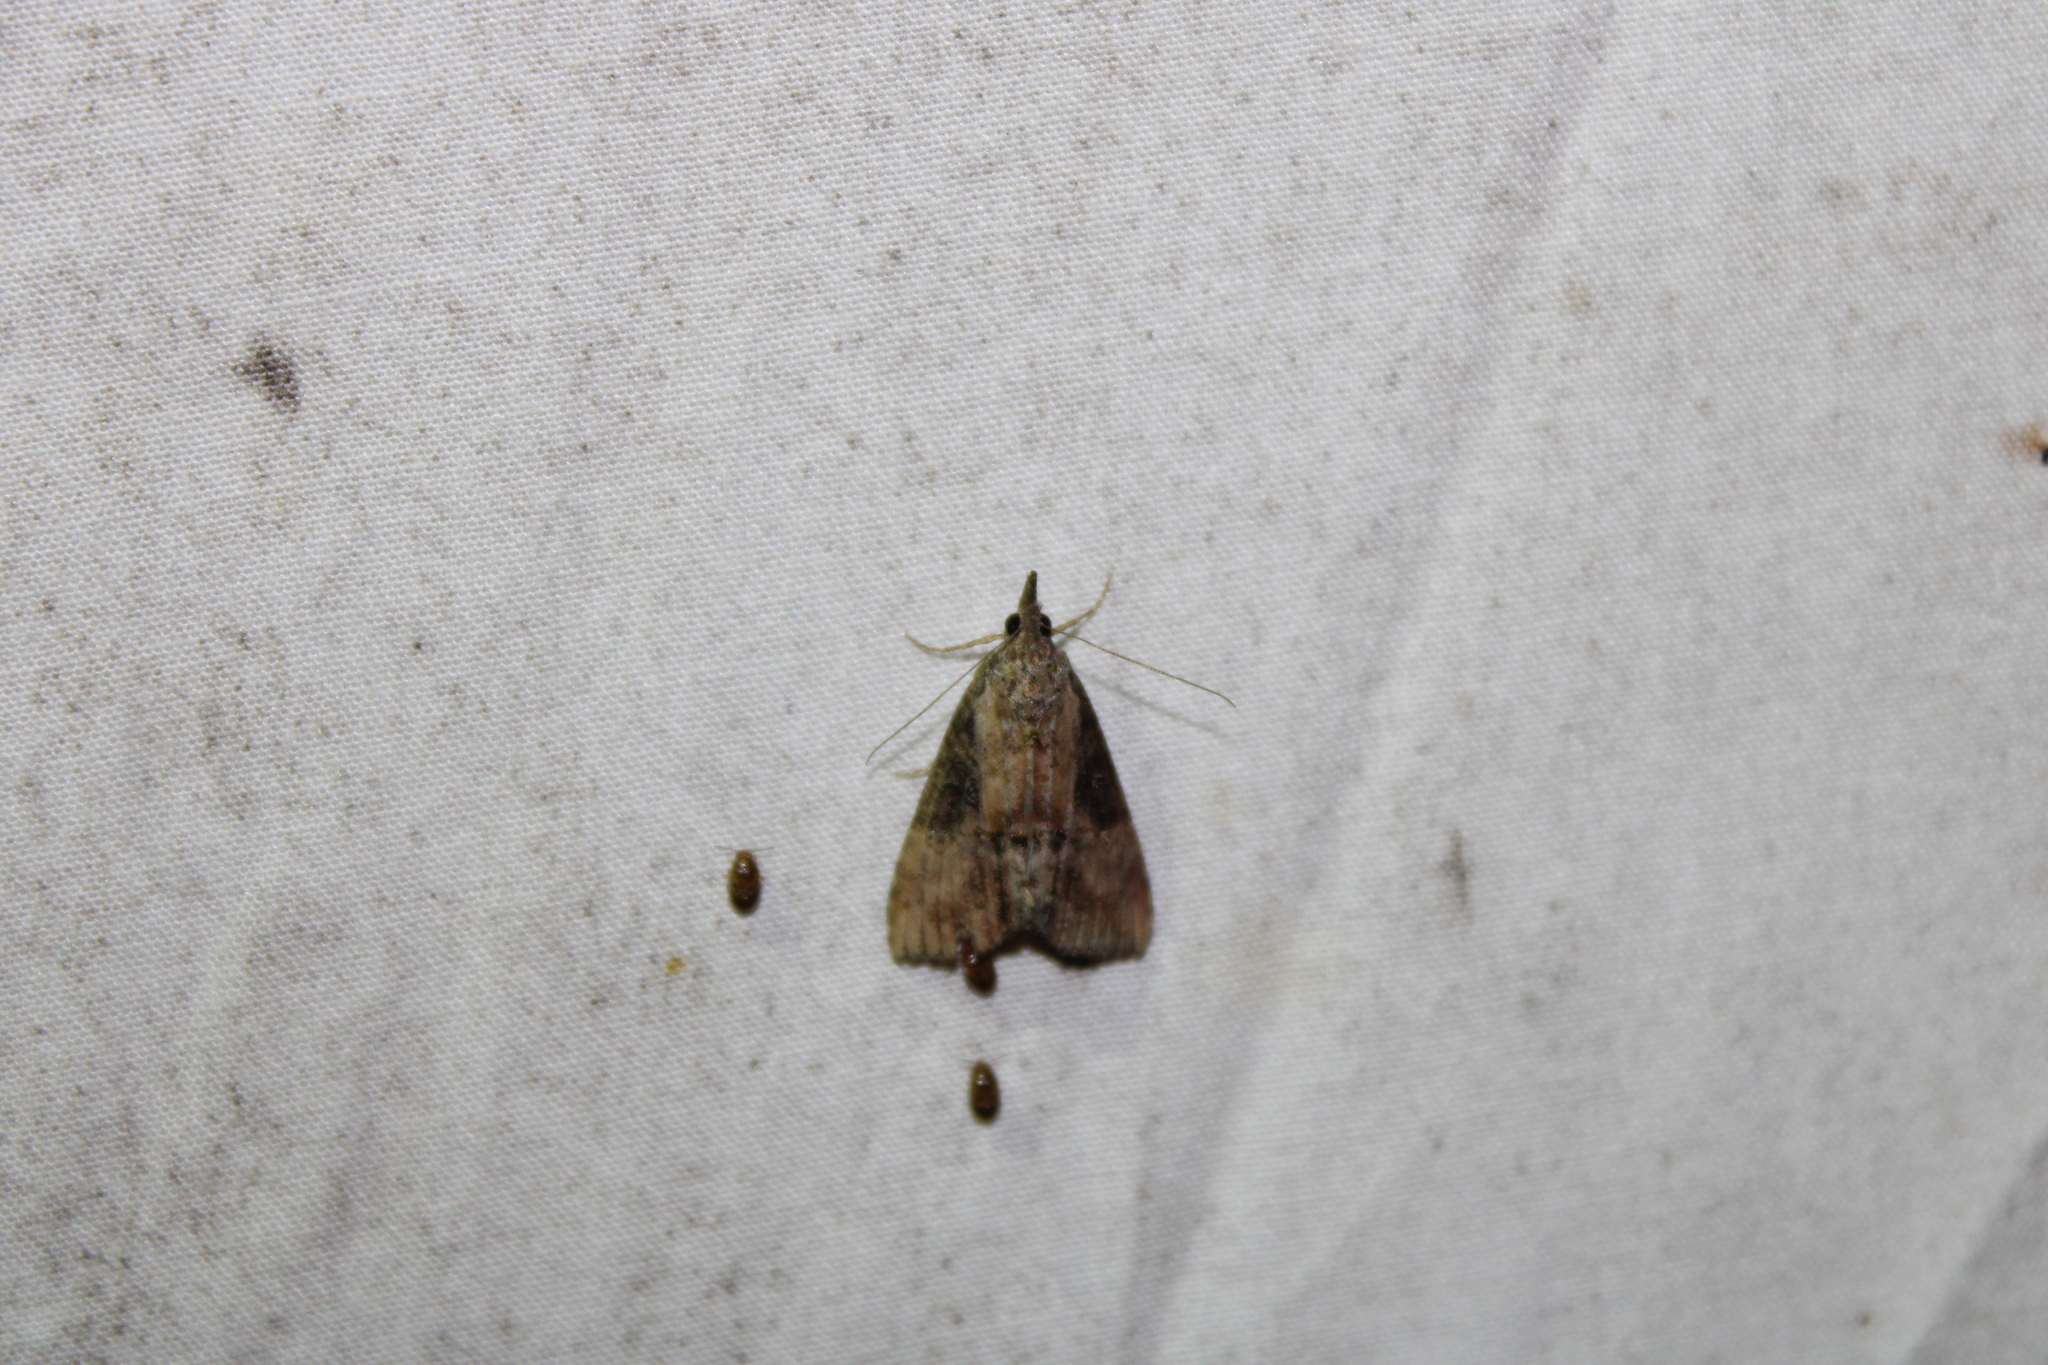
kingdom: Animalia
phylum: Arthropoda
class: Insecta
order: Lepidoptera
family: Erebidae
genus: Hypena
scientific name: Hypena scabra
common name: Green cloverworm
